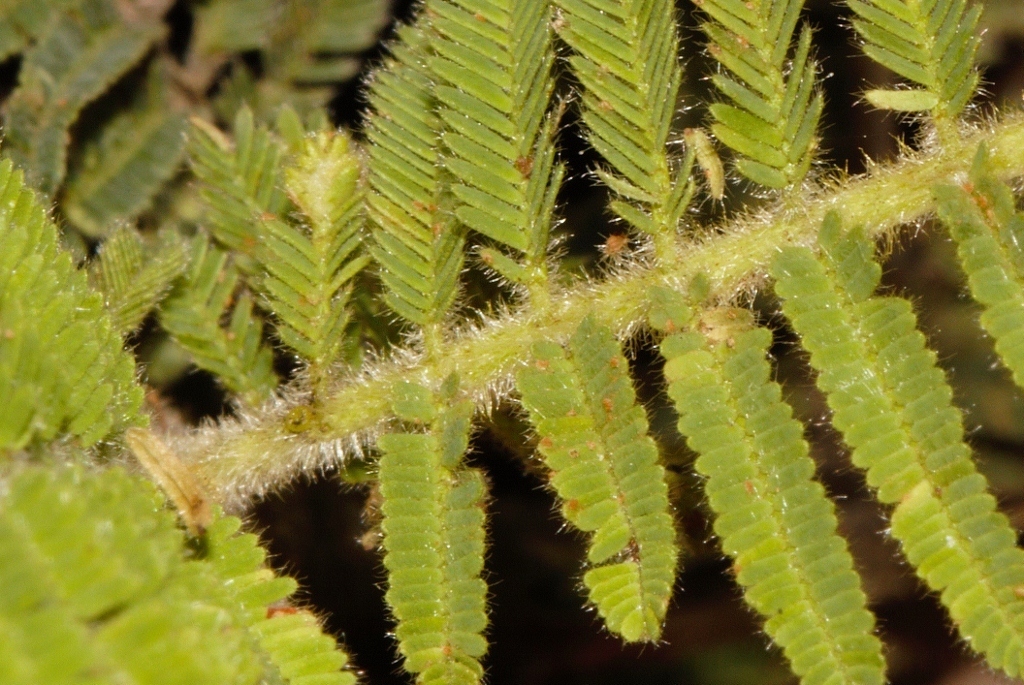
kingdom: Plantae
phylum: Tracheophyta
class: Magnoliopsida
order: Fabales
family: Fabaceae
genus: Vachellia
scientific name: Vachellia rehmanniana
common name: Silky thorn
